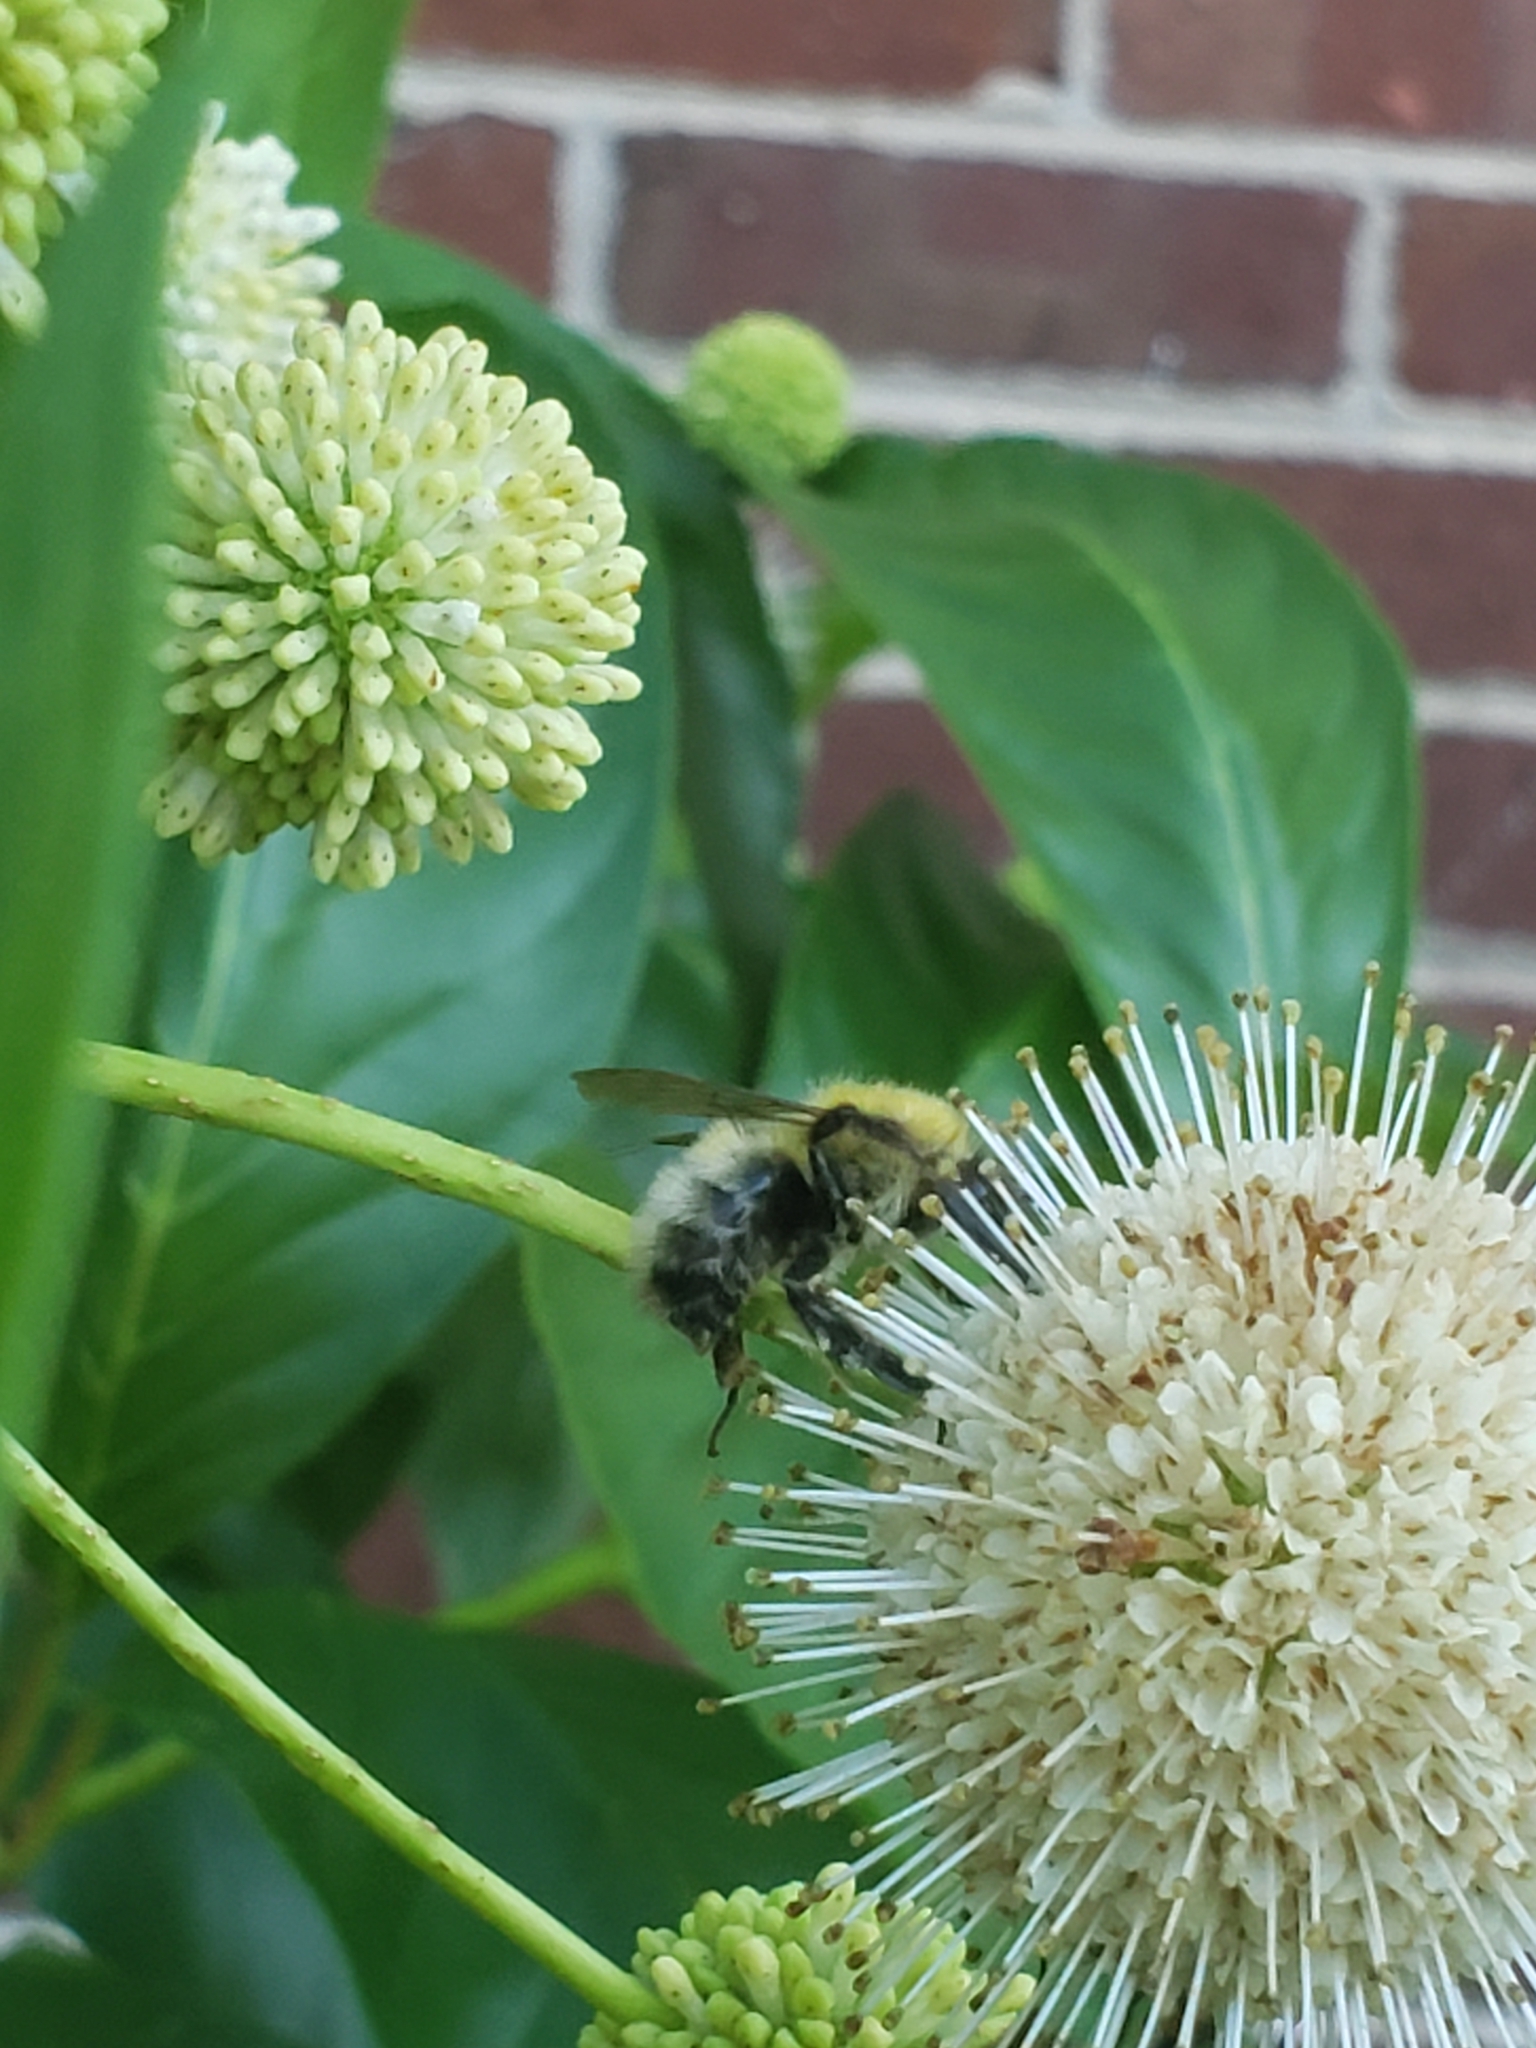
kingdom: Animalia
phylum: Arthropoda
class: Insecta
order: Hymenoptera
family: Apidae
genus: Bombus
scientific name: Bombus perplexus
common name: Confusing bumble bee
